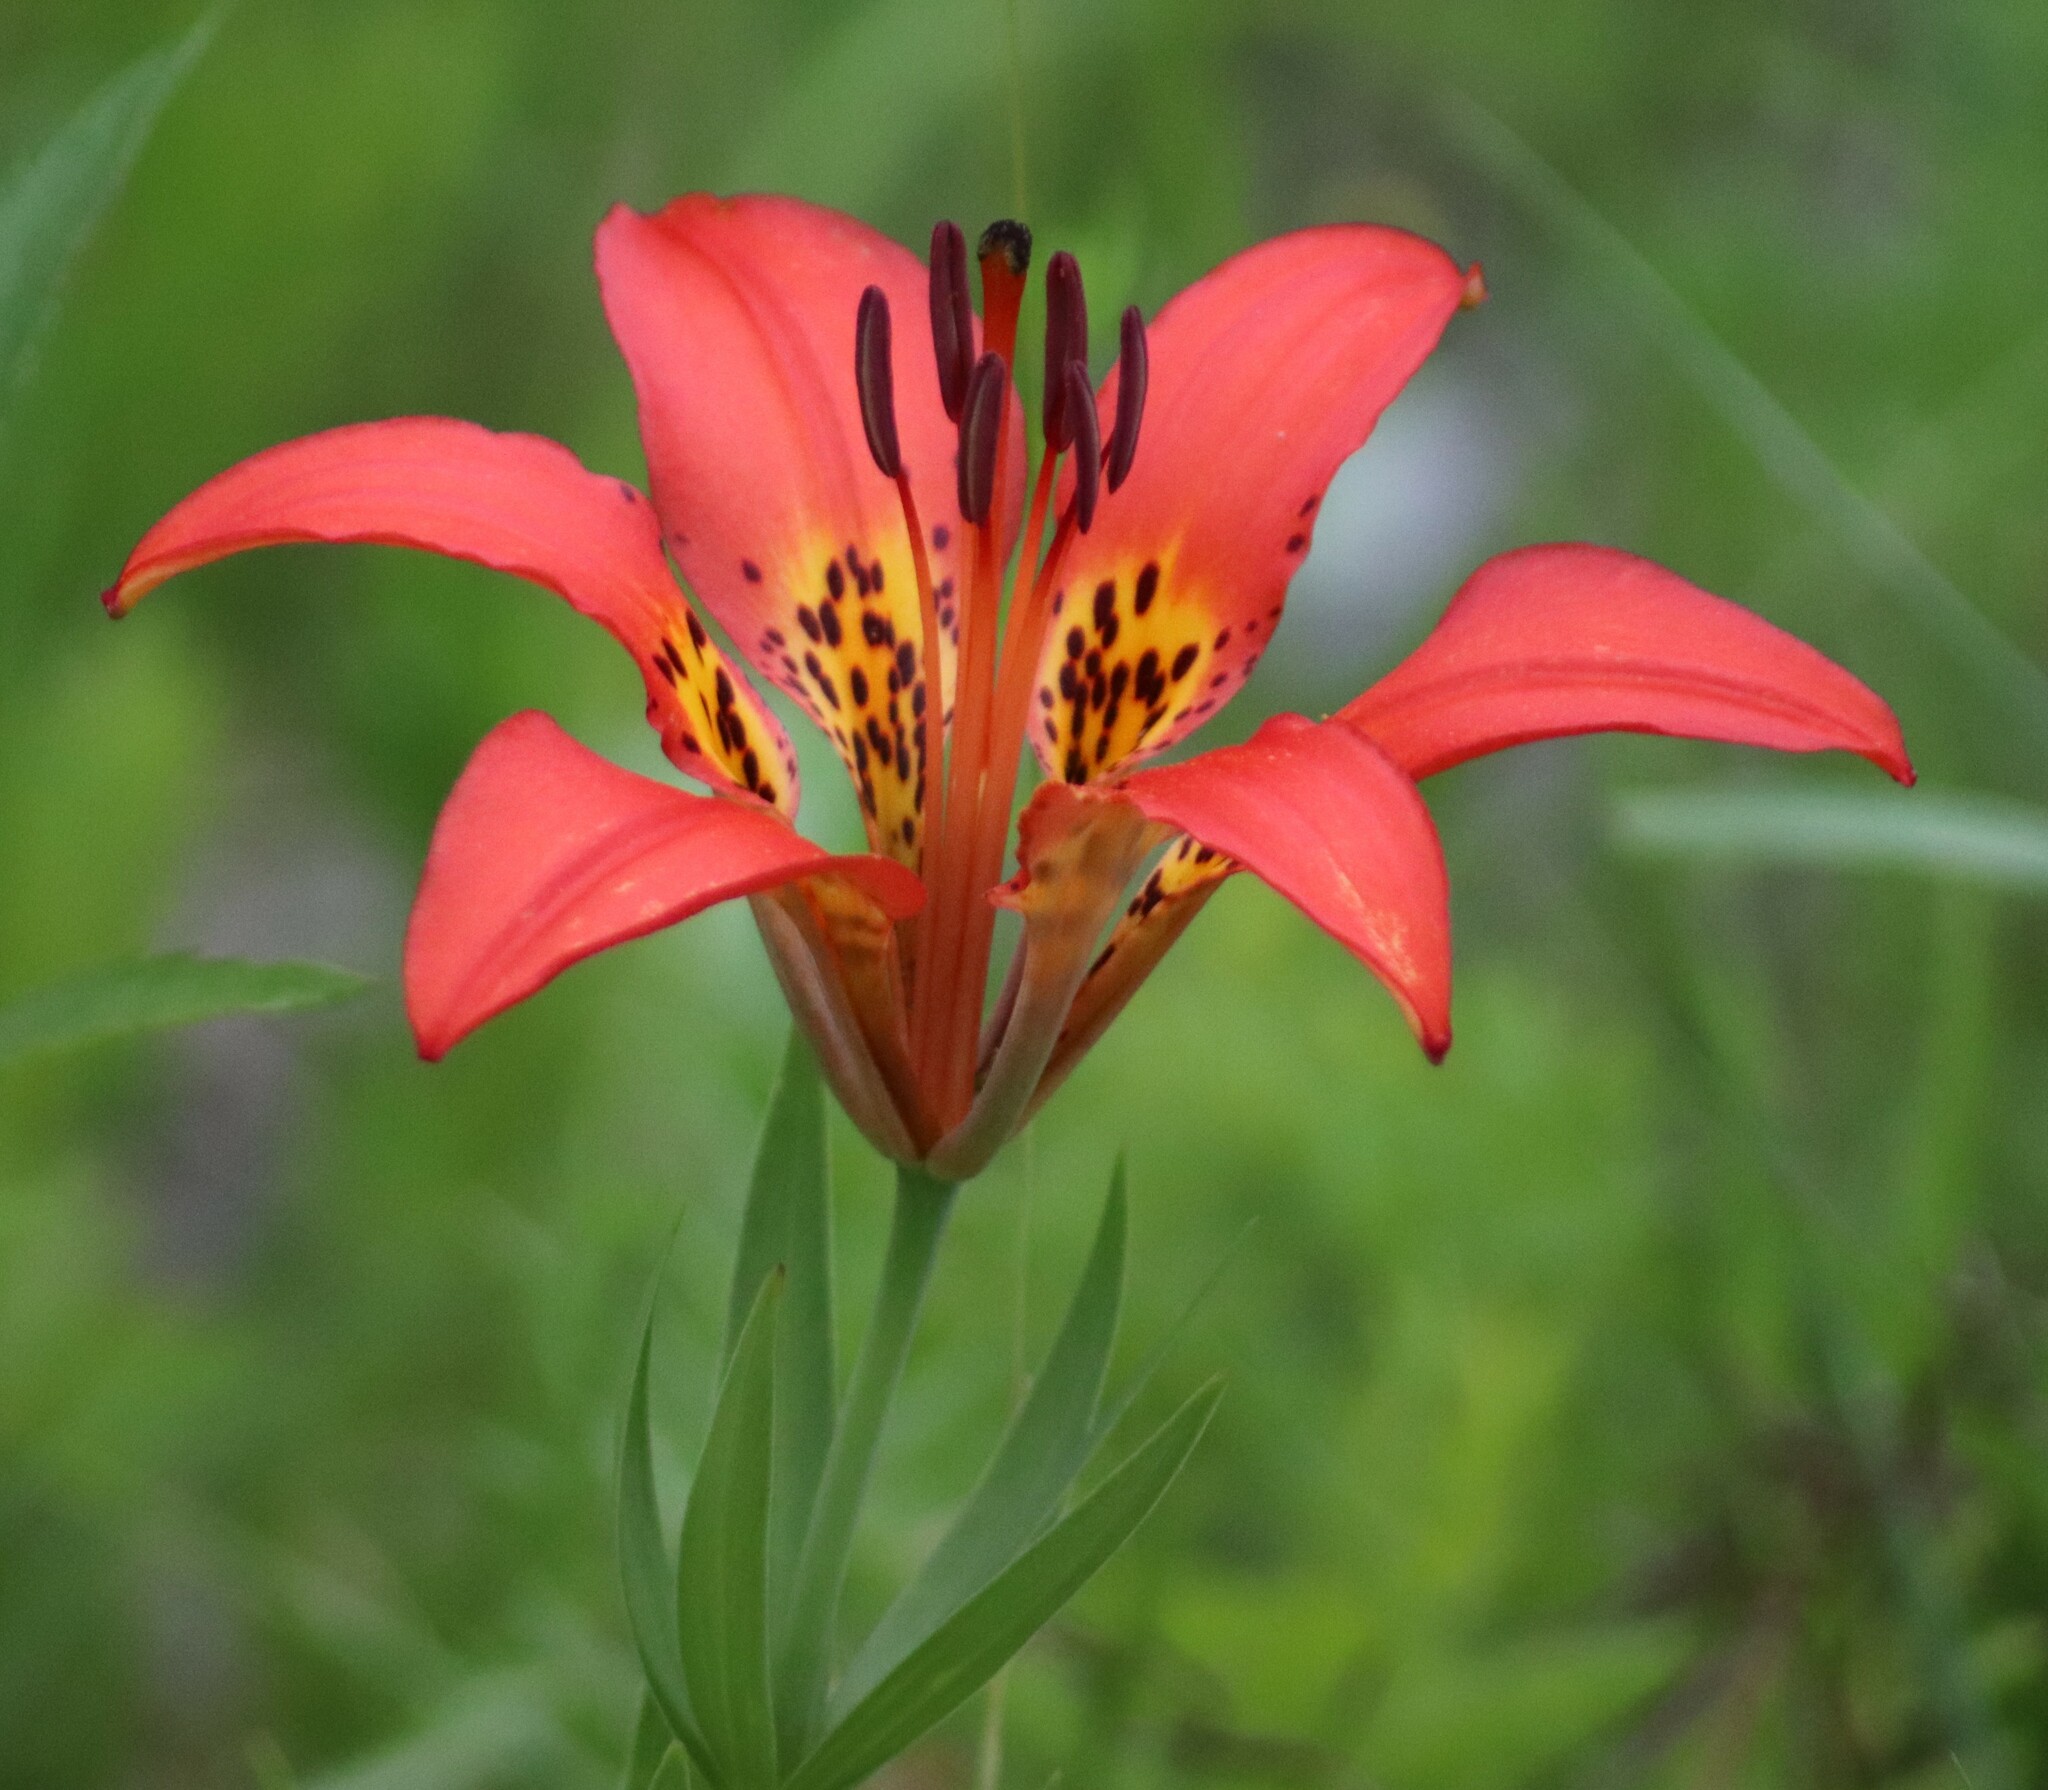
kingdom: Plantae
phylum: Tracheophyta
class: Liliopsida
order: Liliales
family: Liliaceae
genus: Lilium
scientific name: Lilium philadelphicum
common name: Red lily
